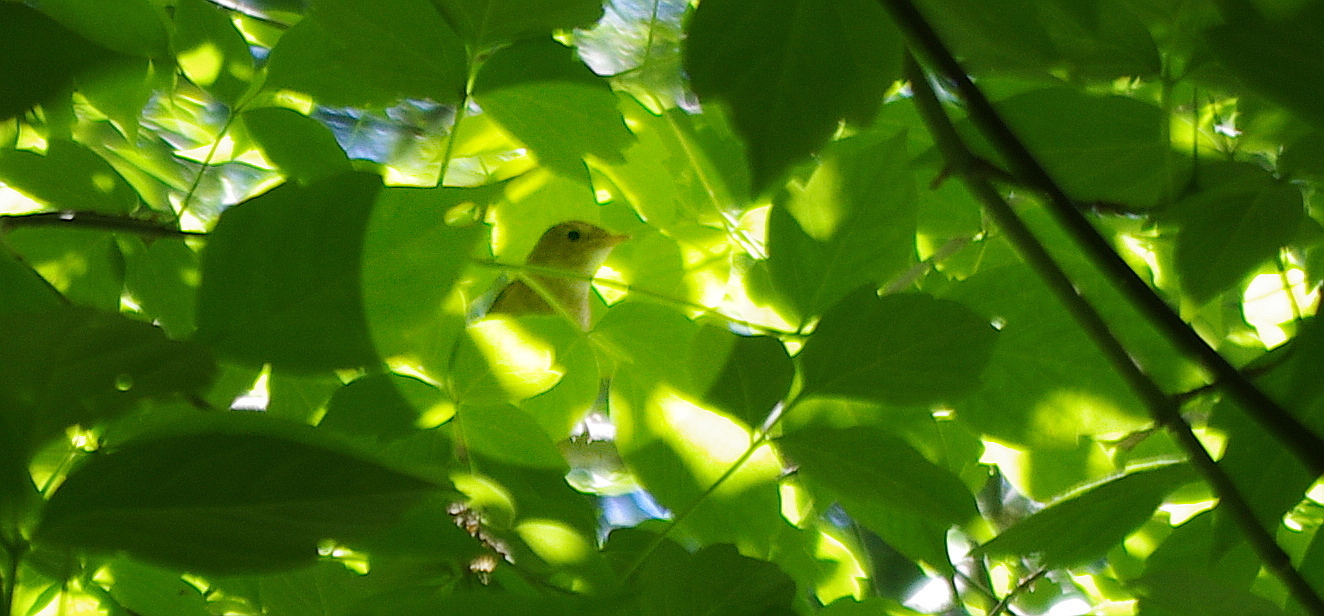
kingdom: Animalia
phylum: Chordata
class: Aves
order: Passeriformes
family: Muscicapidae
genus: Luscinia
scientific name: Luscinia luscinia
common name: Thrush nightingale
